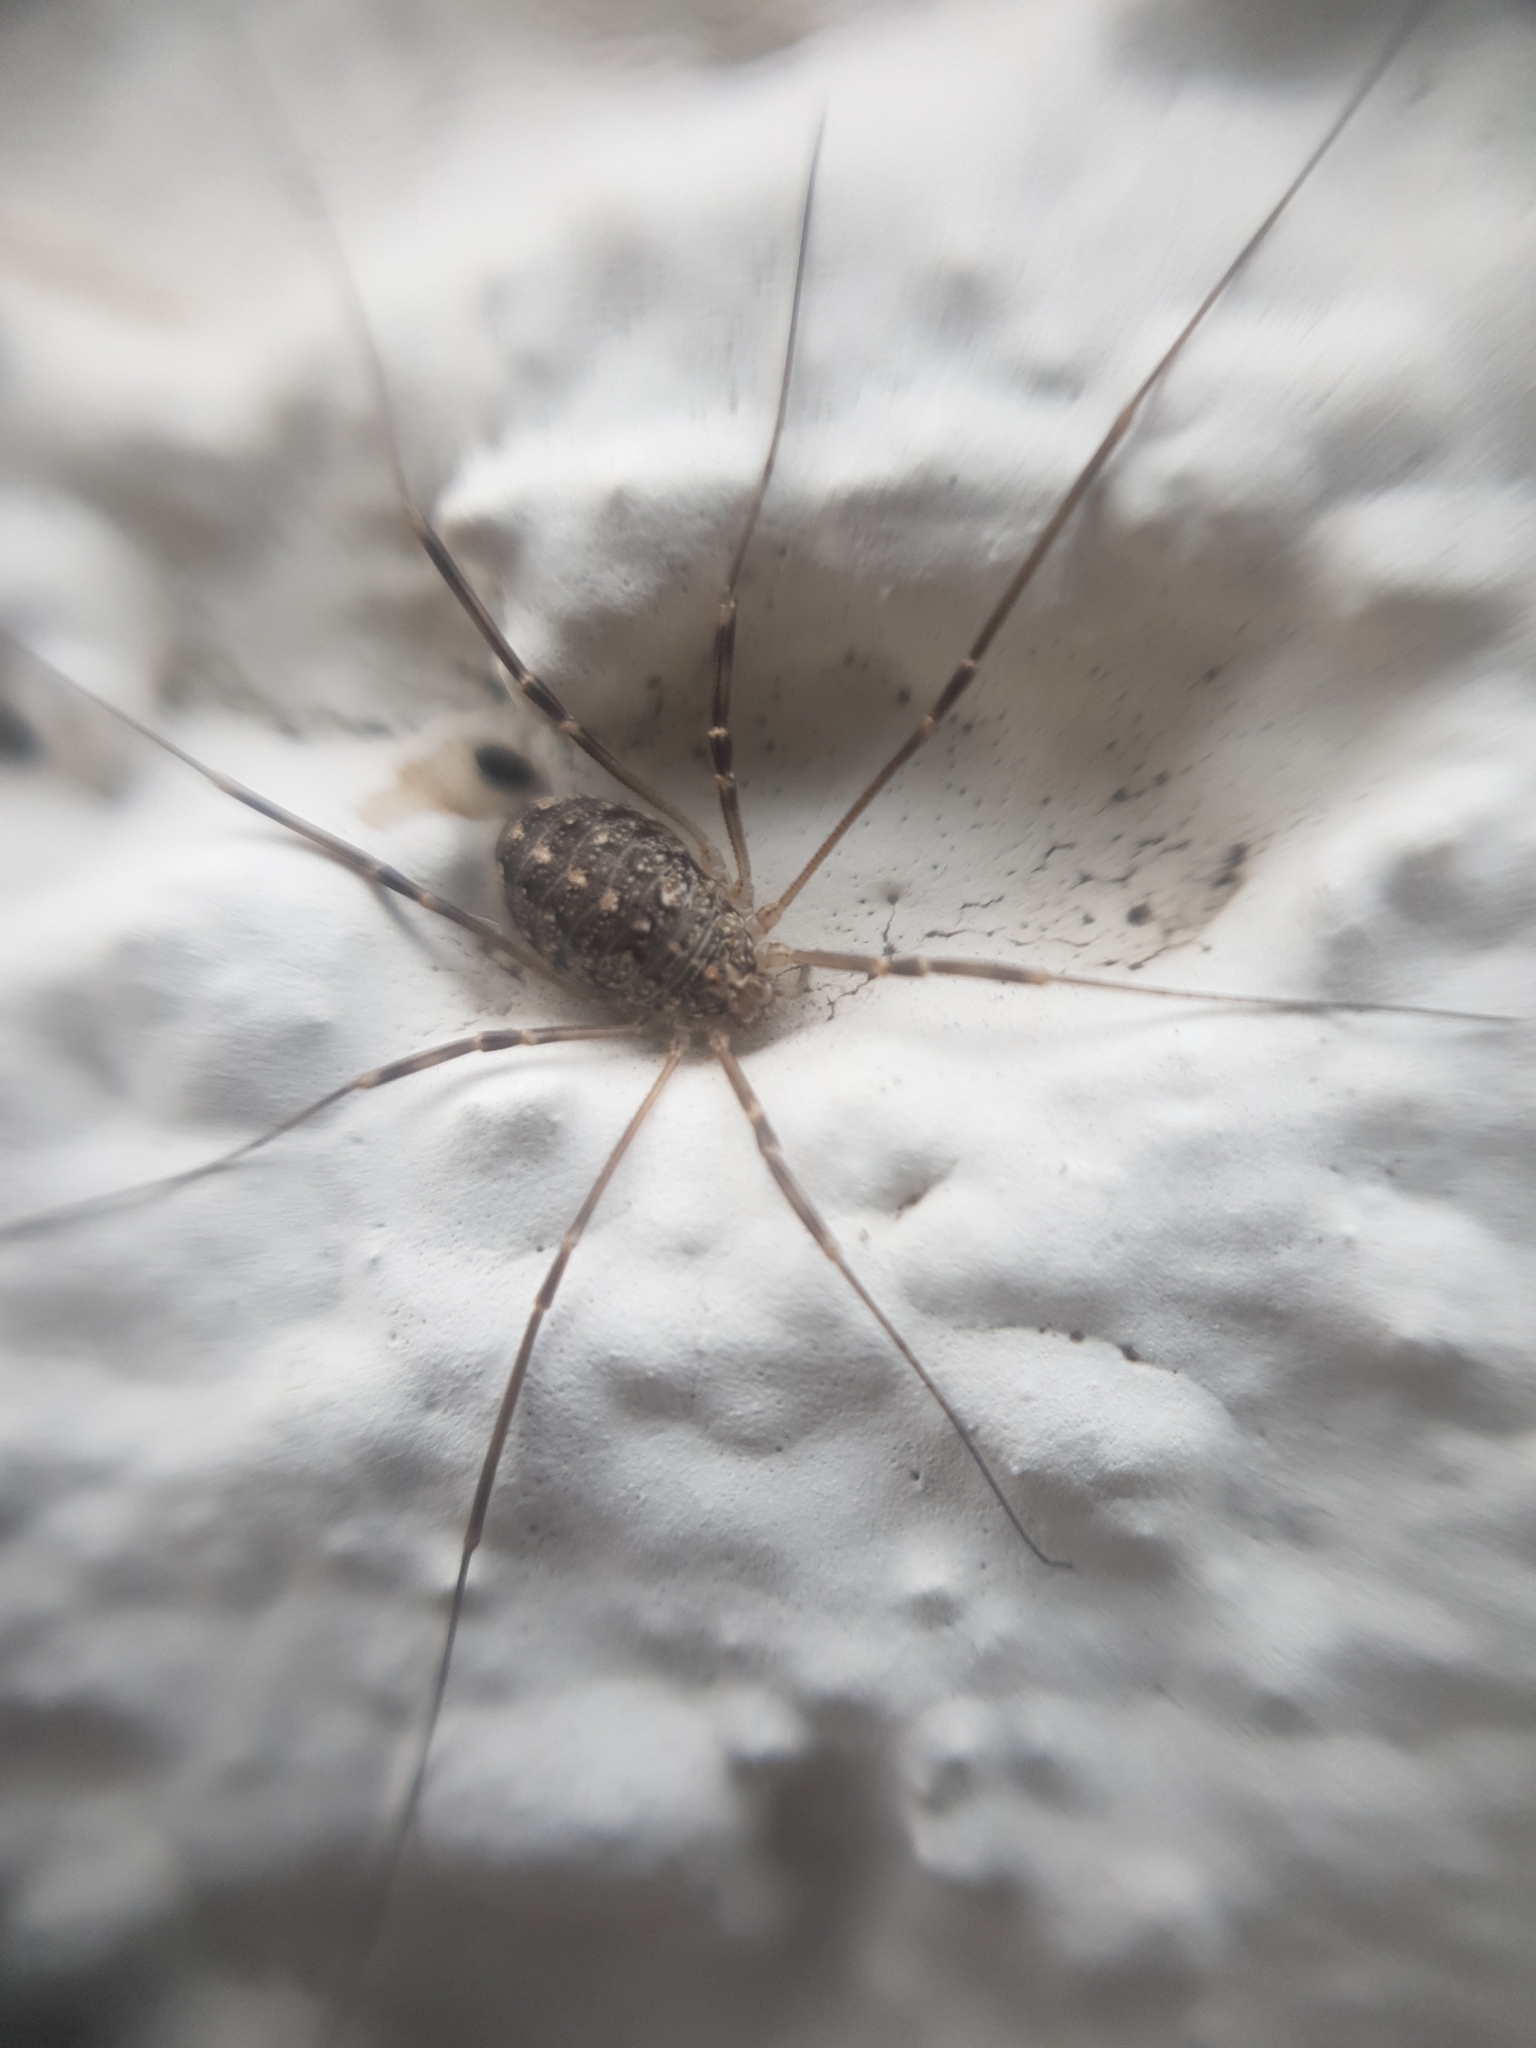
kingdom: Animalia
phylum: Arthropoda
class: Arachnida
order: Opiliones
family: Phalangiidae
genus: Opilio
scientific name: Opilio saxatilis
